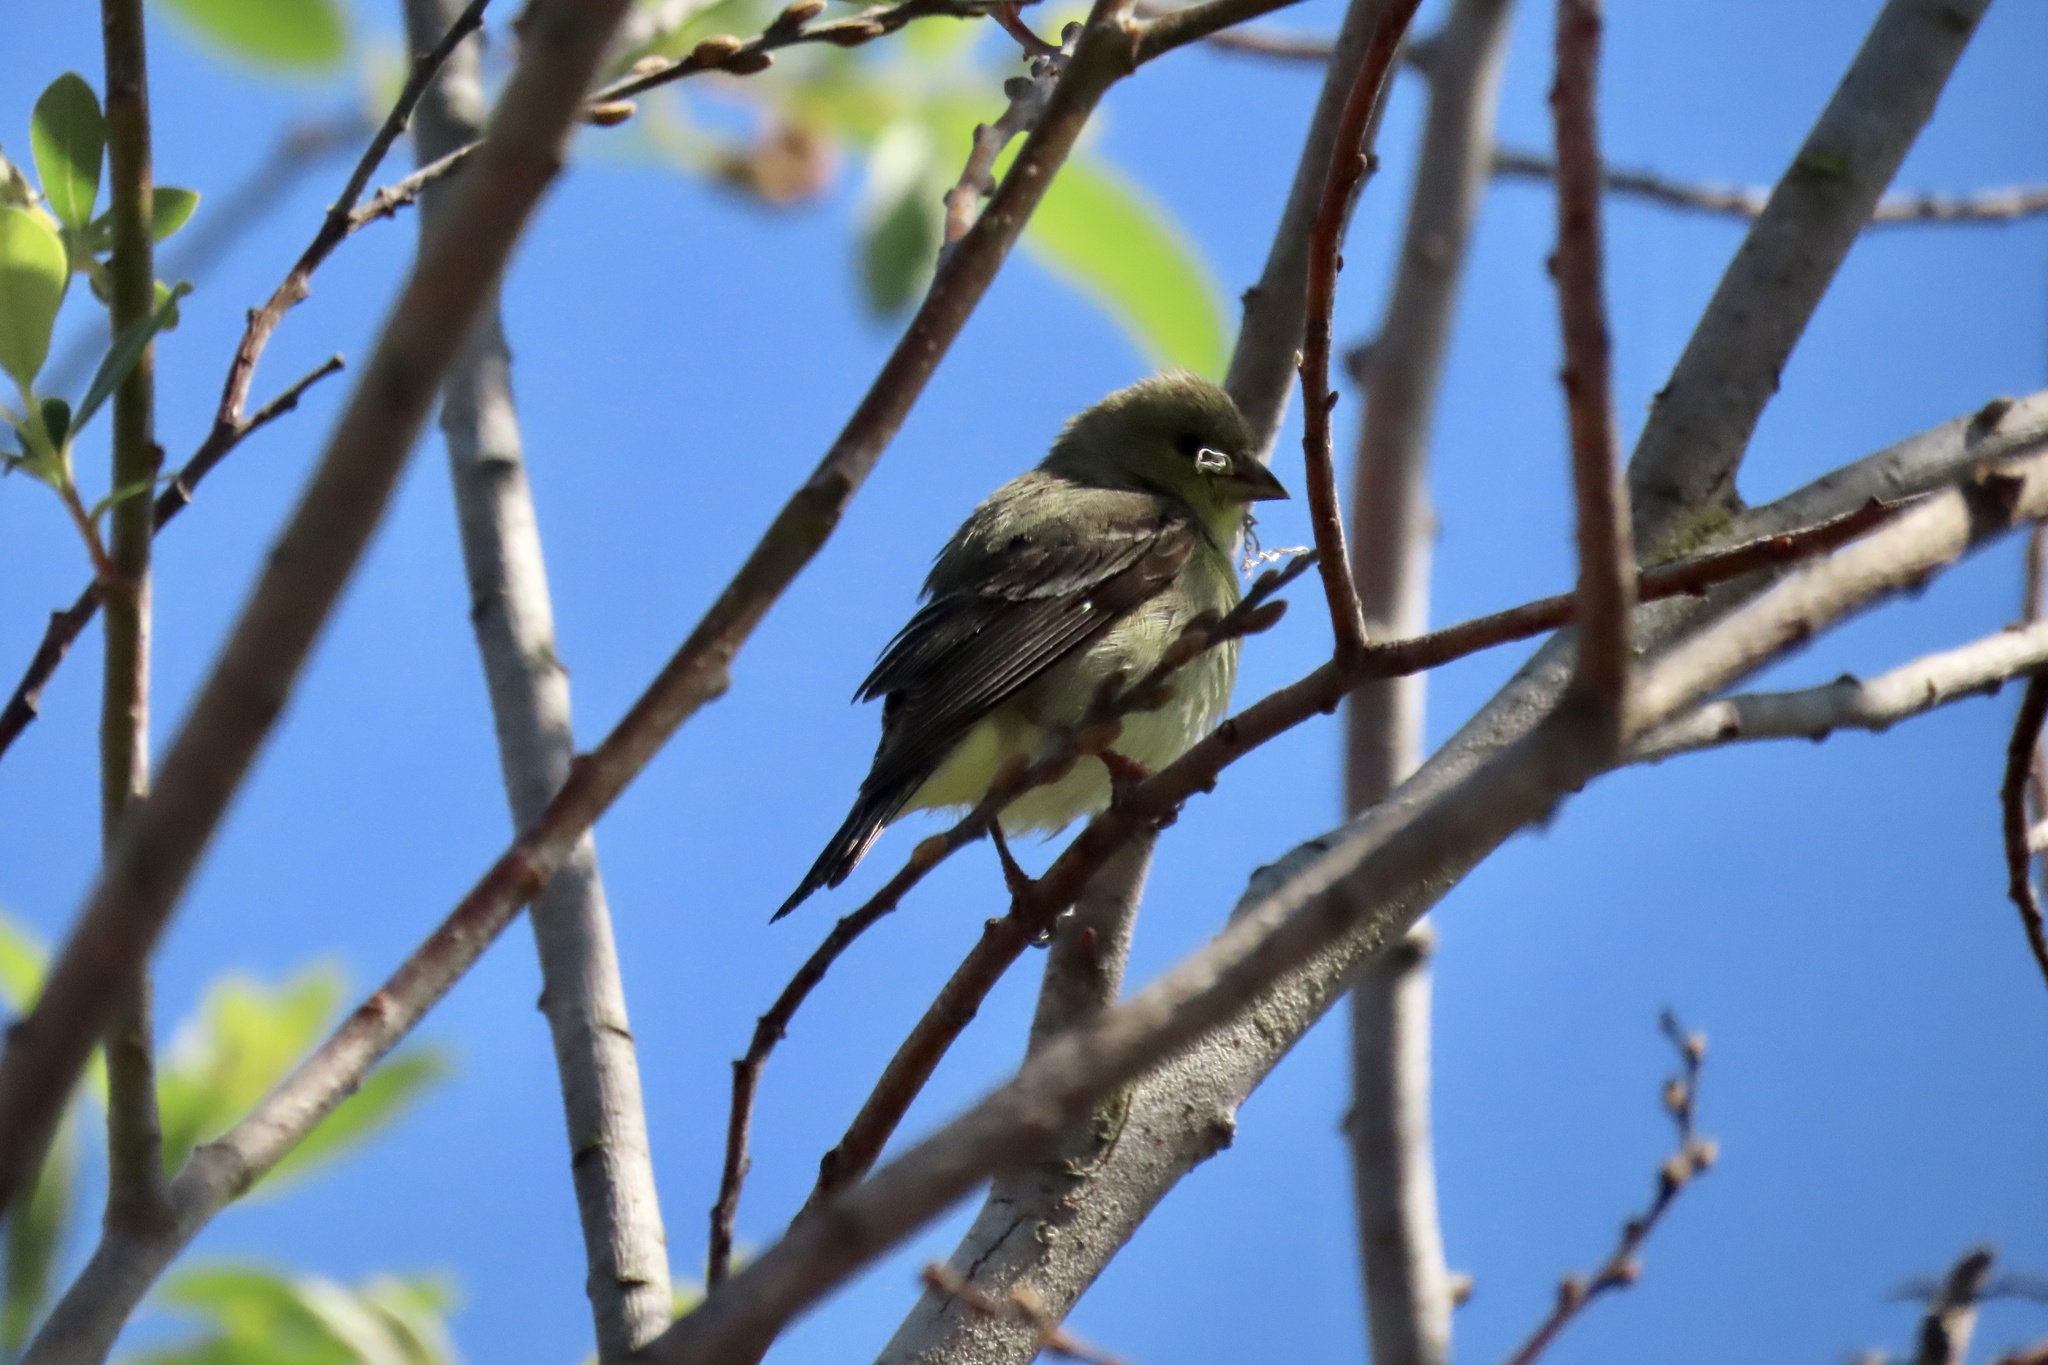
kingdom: Animalia
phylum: Chordata
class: Aves
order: Passeriformes
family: Fringillidae
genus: Spinus
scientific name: Spinus psaltria
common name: Lesser goldfinch
